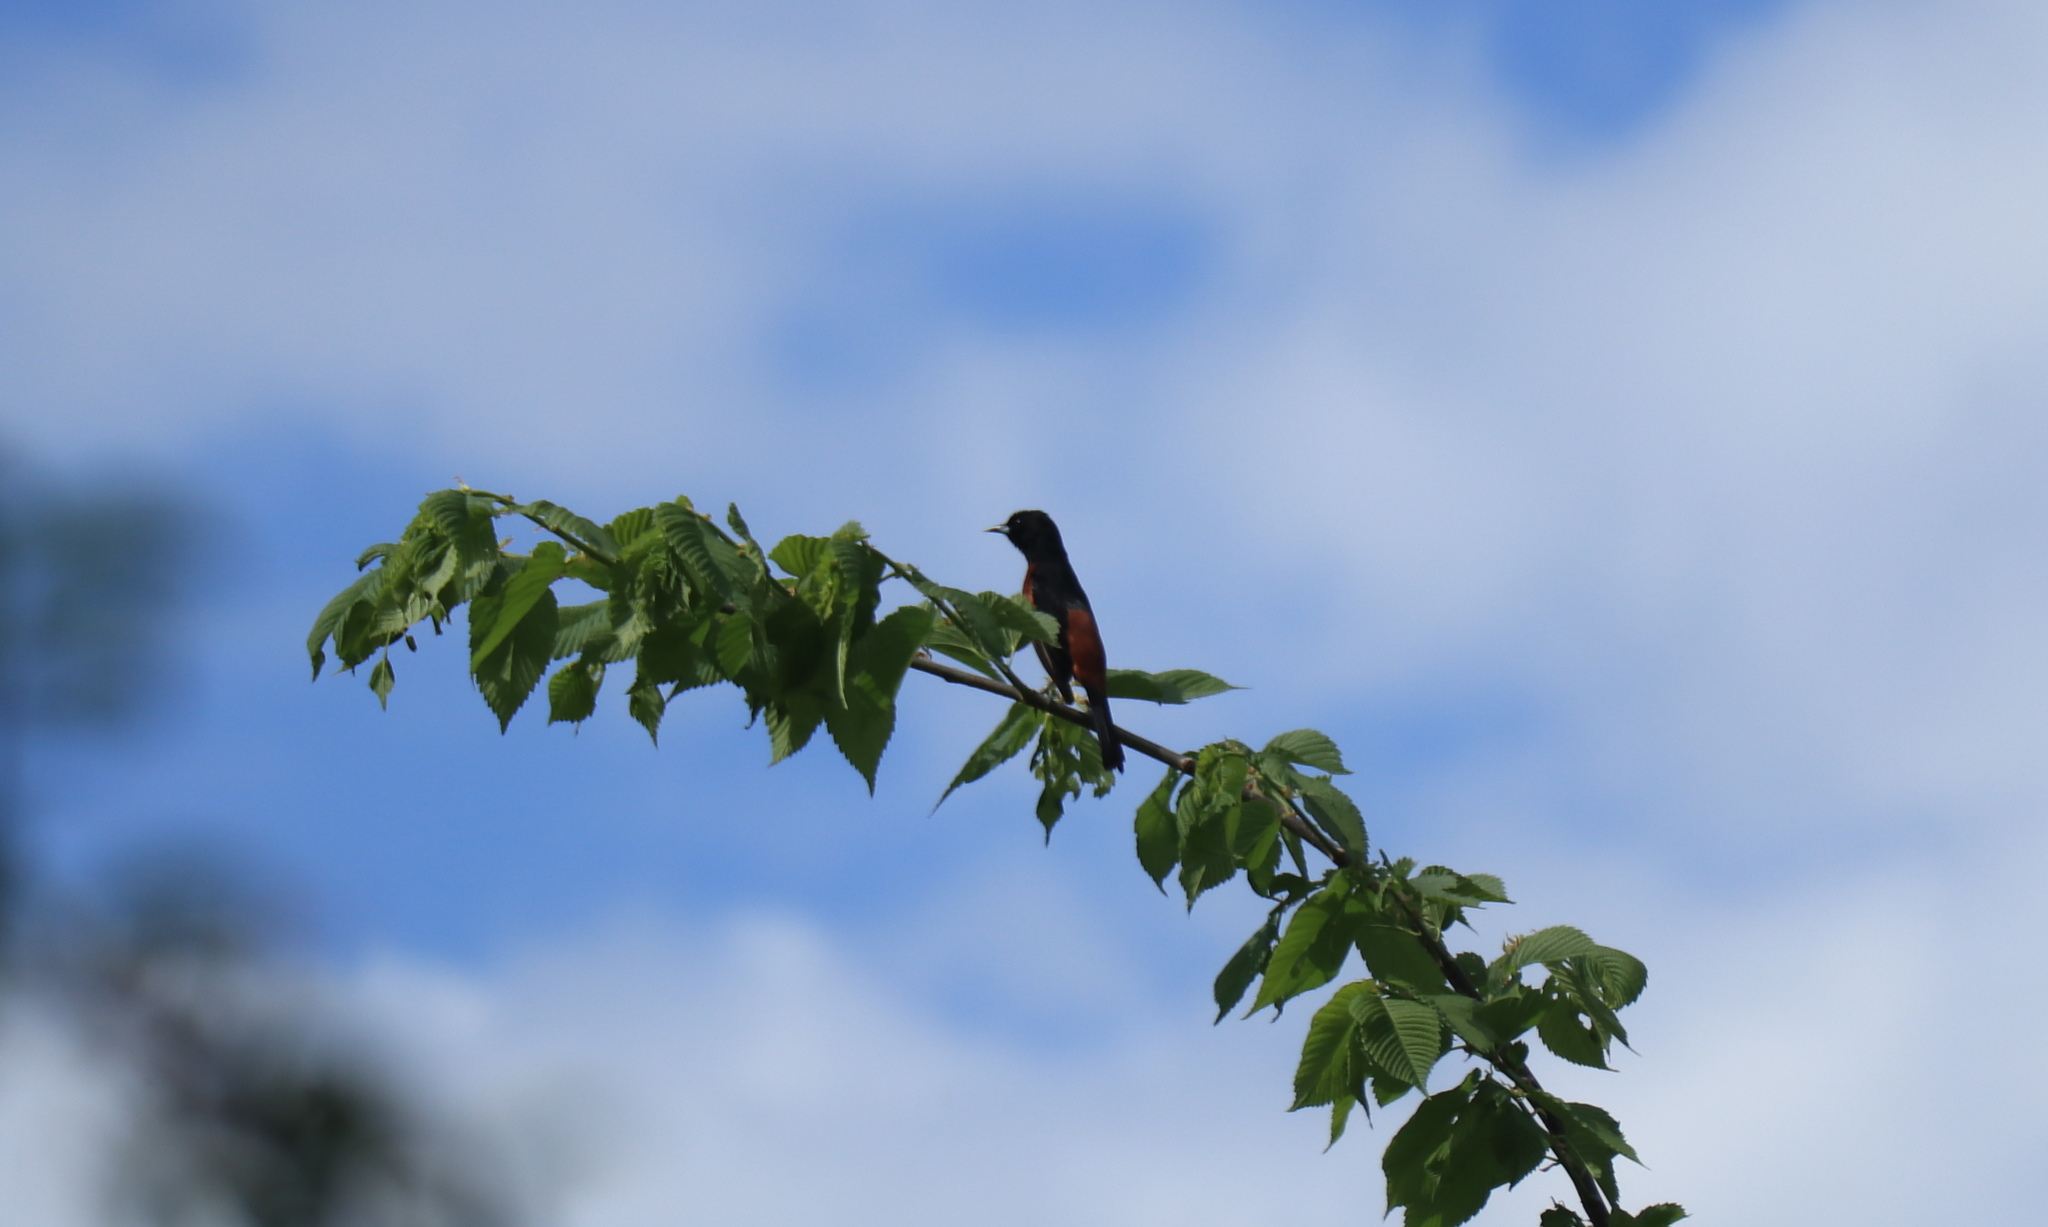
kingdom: Animalia
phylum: Chordata
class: Aves
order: Passeriformes
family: Icteridae
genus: Icterus
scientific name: Icterus spurius
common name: Orchard oriole
